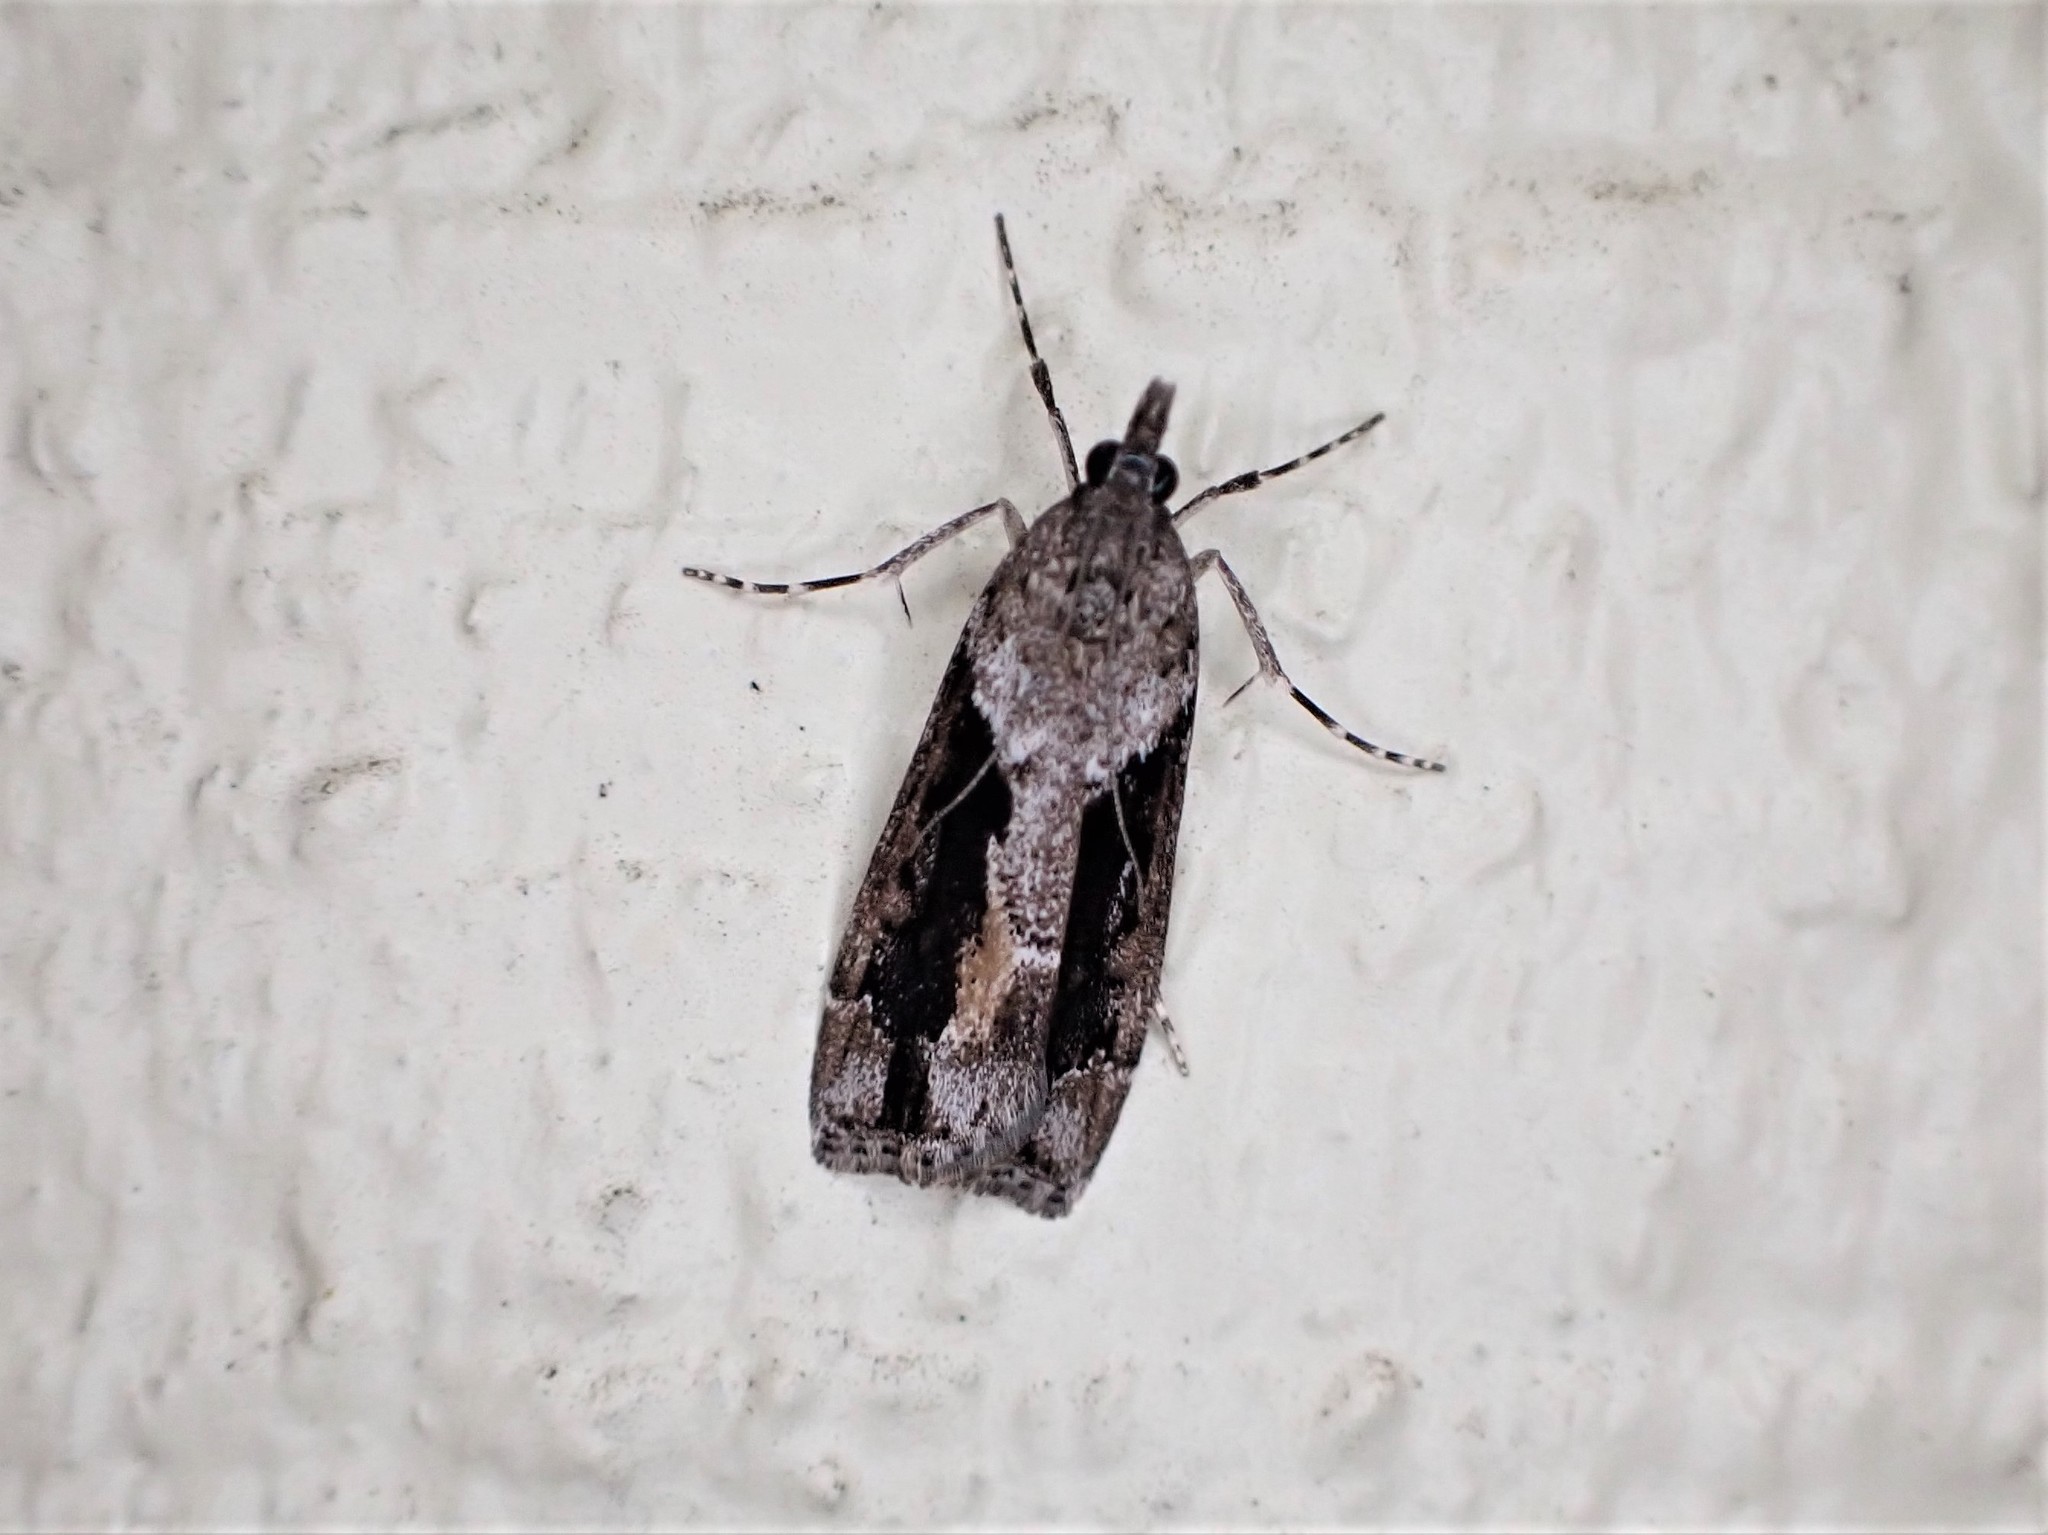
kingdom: Animalia
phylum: Arthropoda
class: Insecta
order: Lepidoptera
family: Crambidae
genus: Eudonia
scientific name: Eudonia submarginalis
